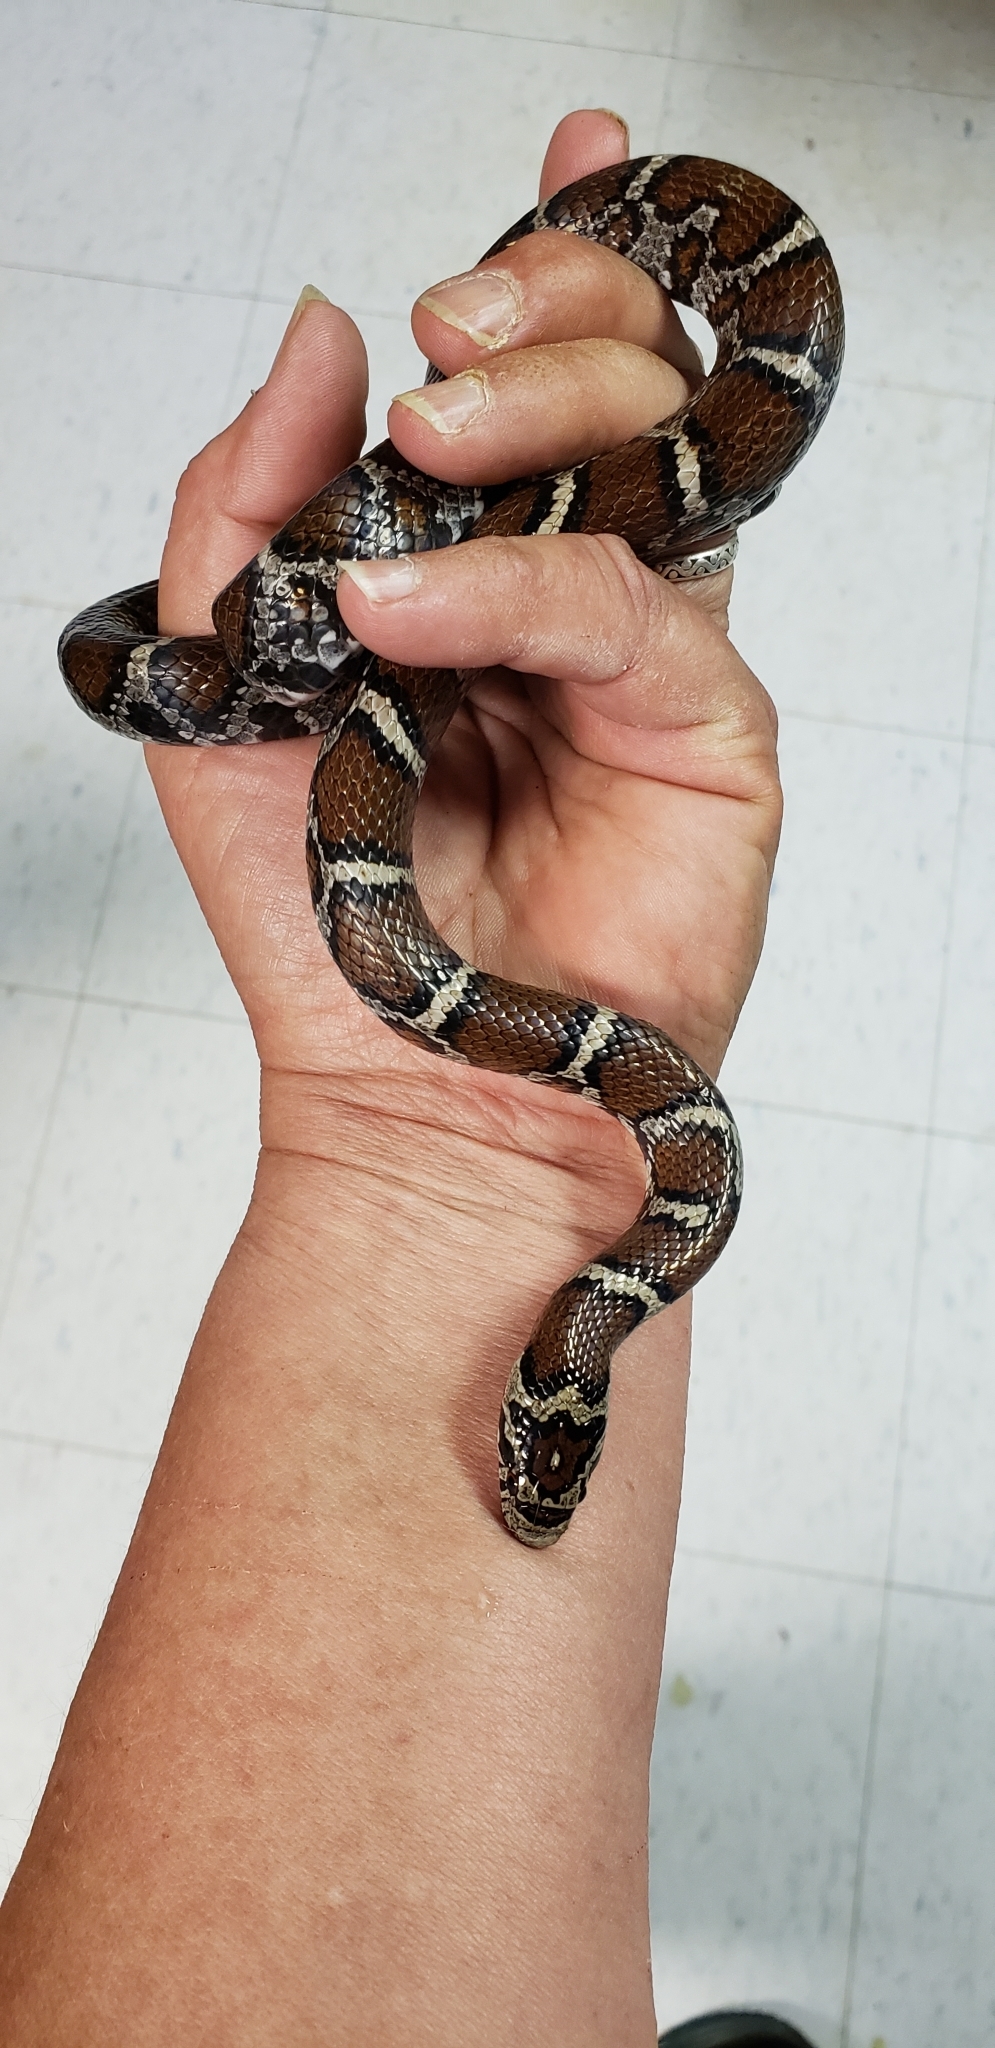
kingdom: Animalia
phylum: Chordata
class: Squamata
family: Colubridae
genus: Lampropeltis
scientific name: Lampropeltis triangulum
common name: Eastern milksnake
